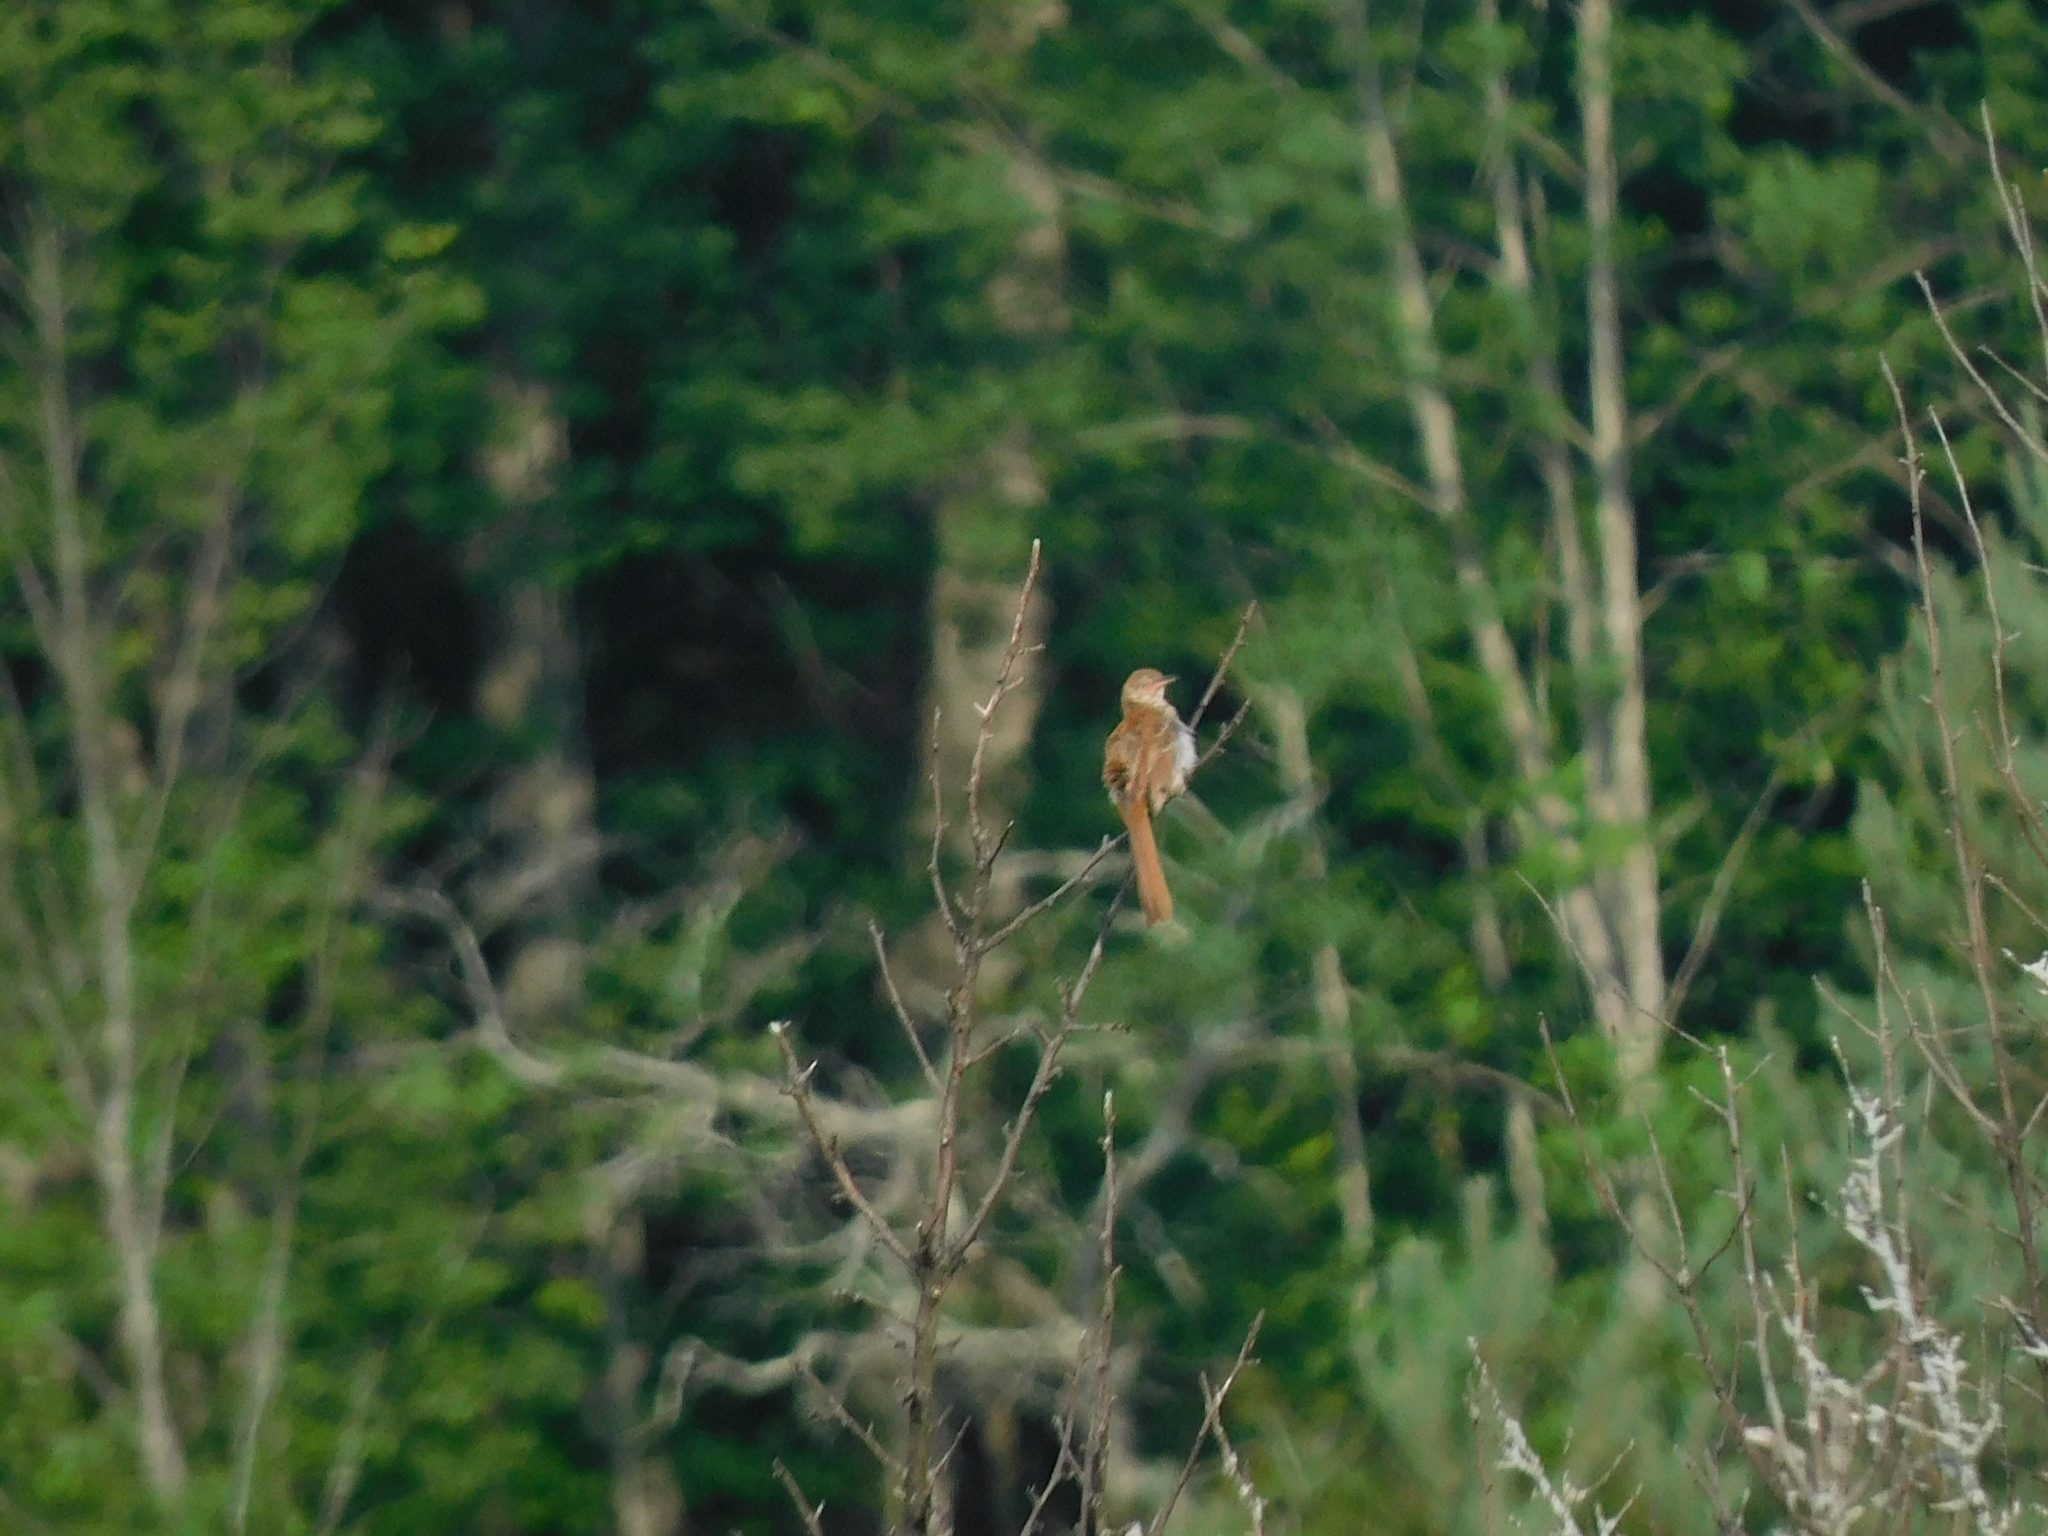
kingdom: Animalia
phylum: Chordata
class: Aves
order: Passeriformes
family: Mimidae
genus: Toxostoma
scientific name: Toxostoma rufum
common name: Brown thrasher
